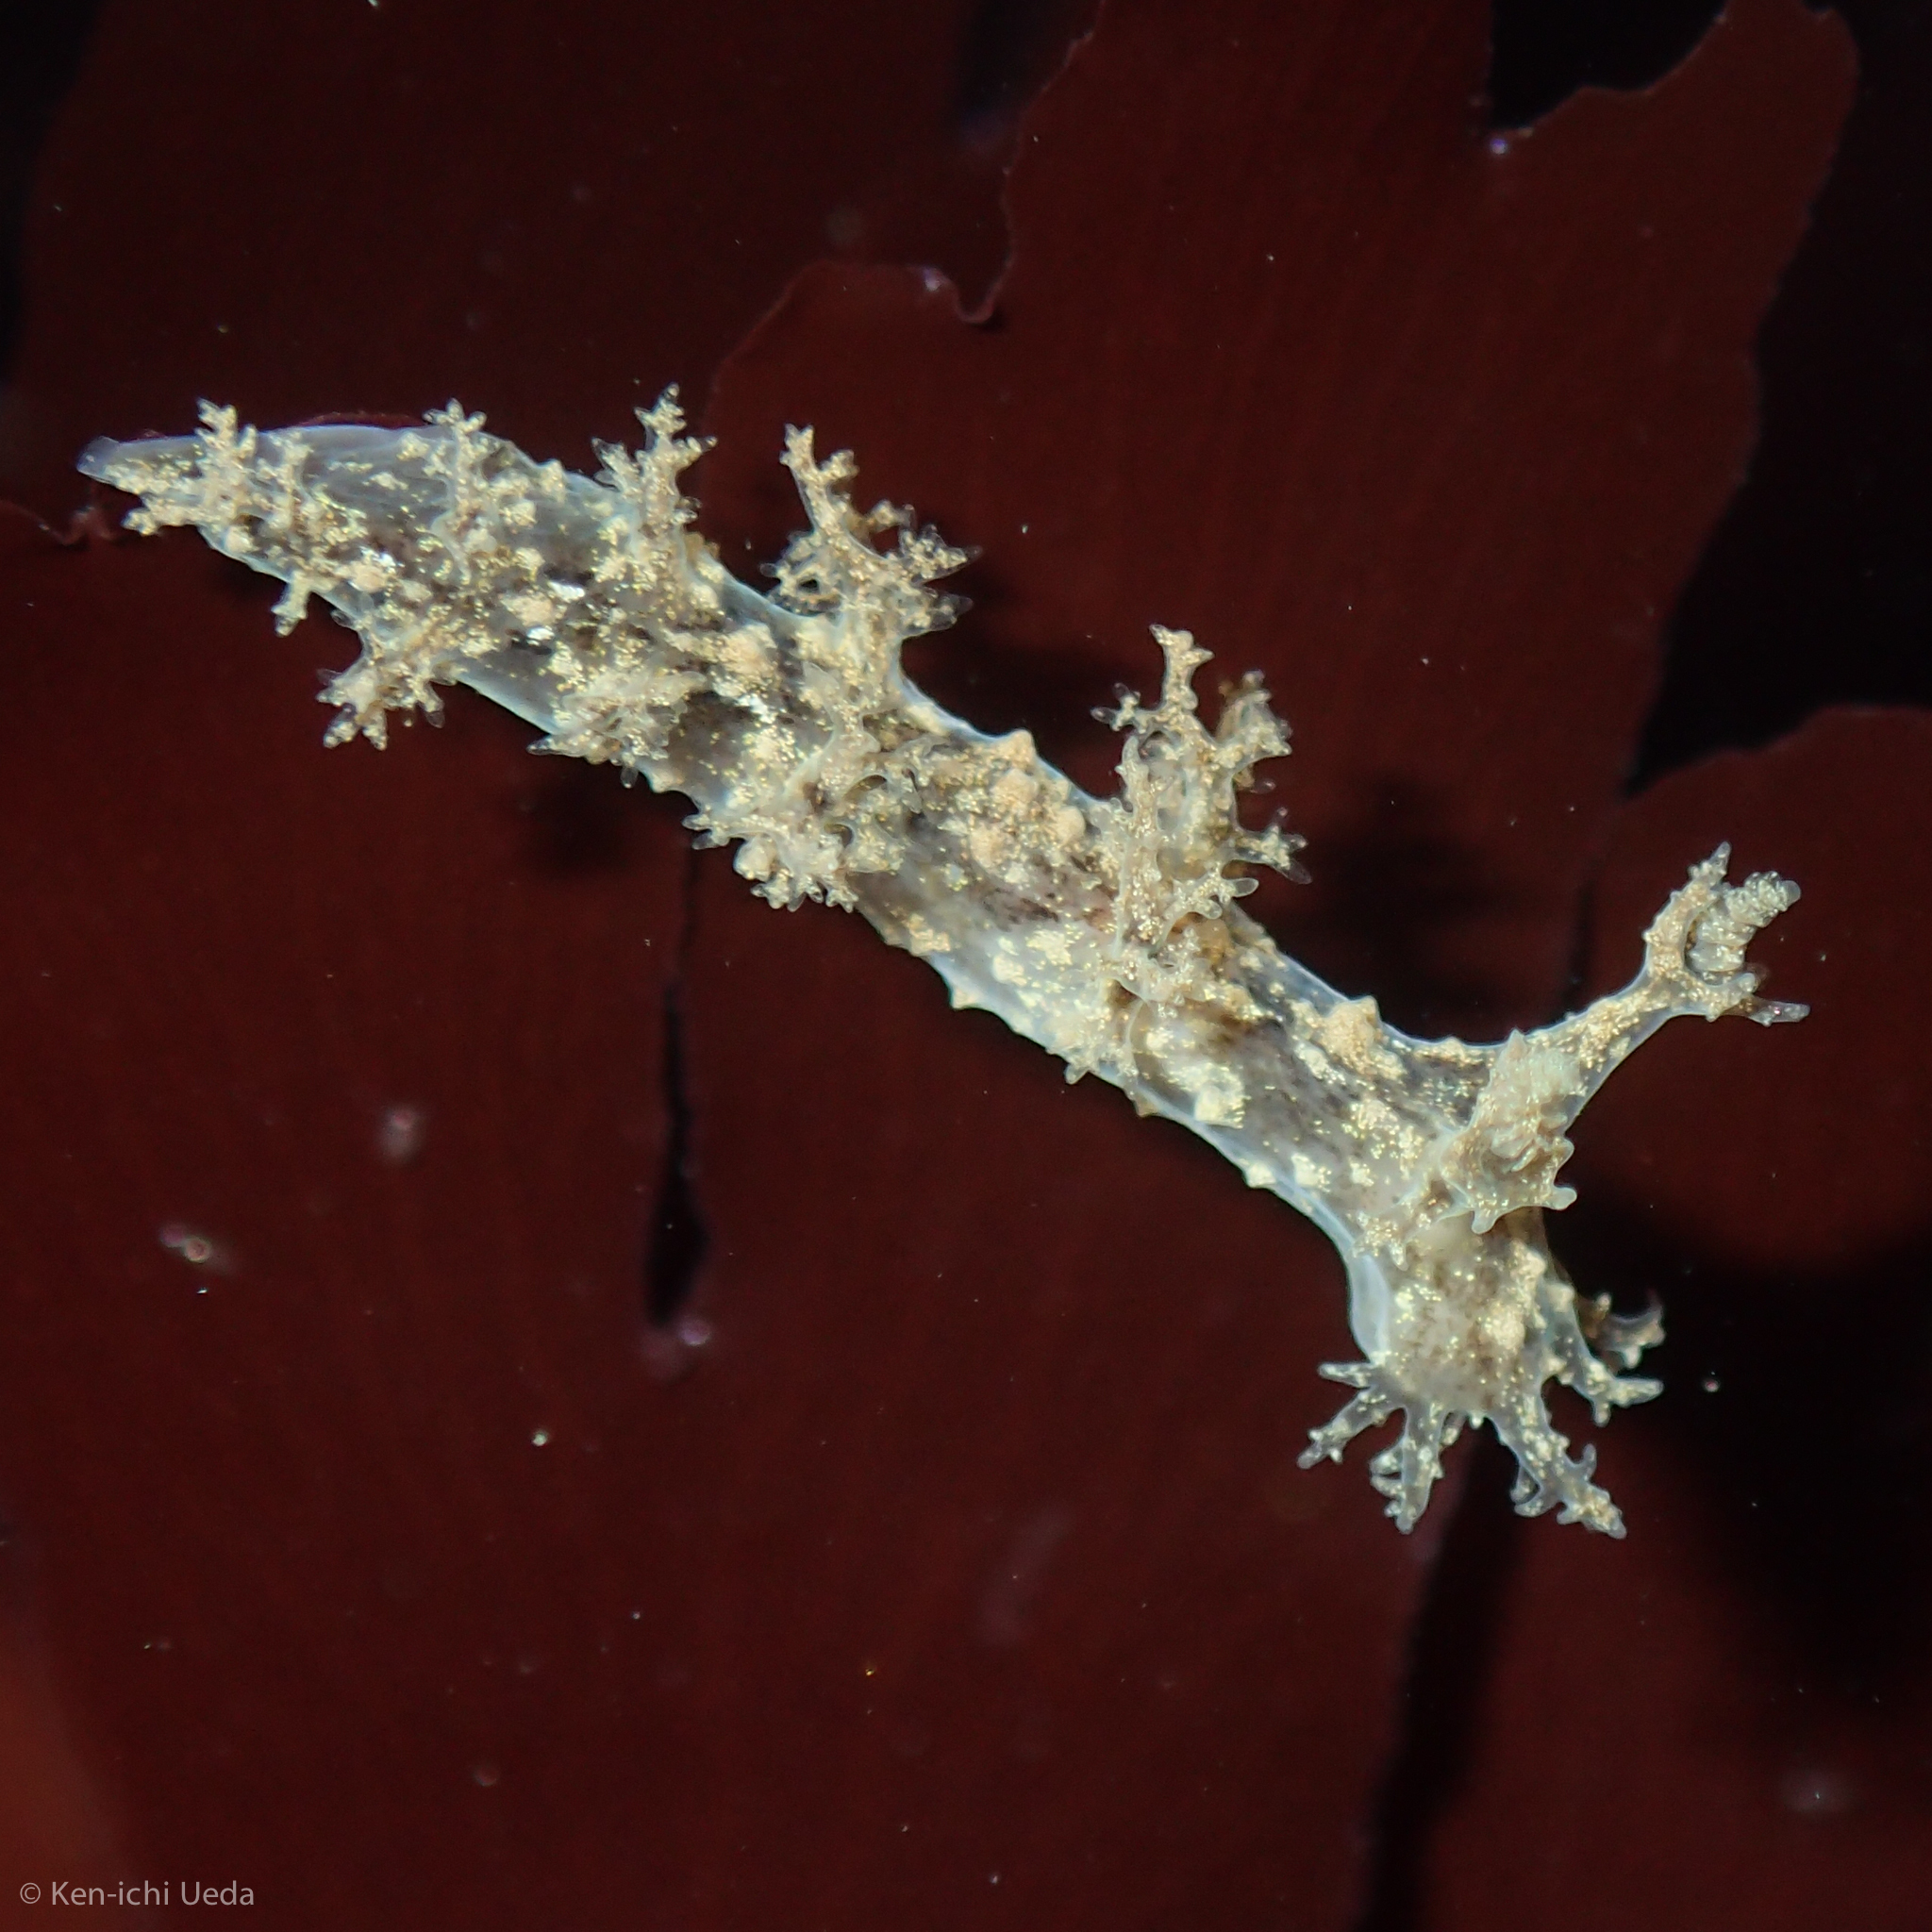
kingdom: Animalia
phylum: Mollusca
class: Gastropoda
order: Nudibranchia
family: Dendronotidae
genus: Dendronotus
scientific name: Dendronotus venustus
